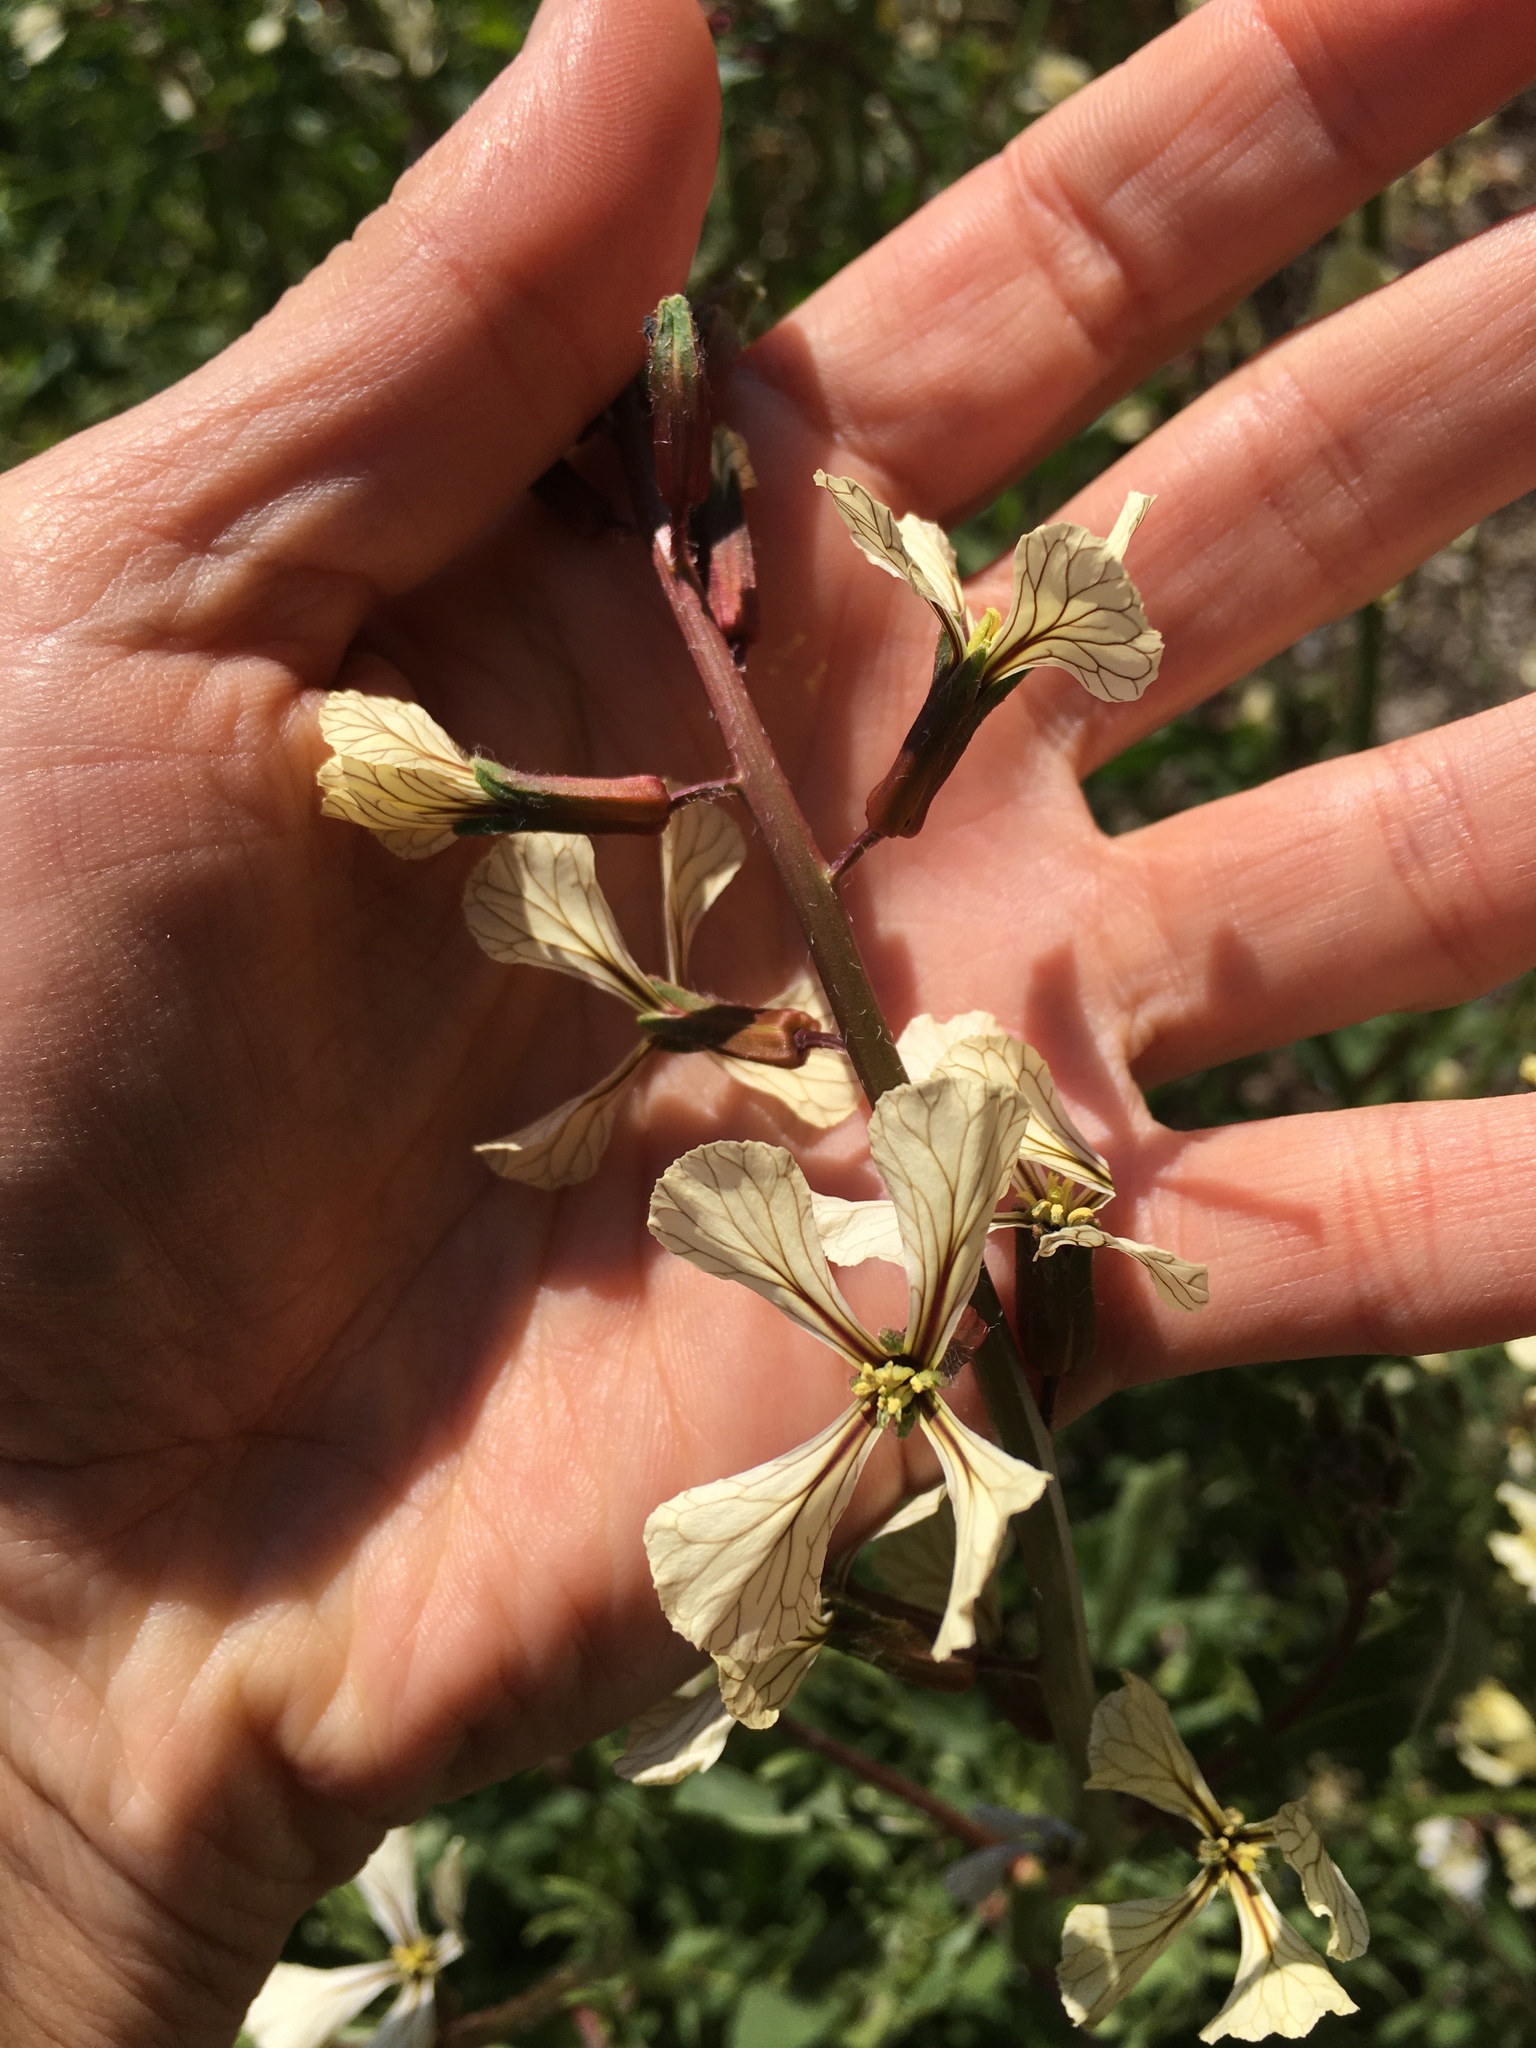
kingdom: Plantae
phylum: Tracheophyta
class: Magnoliopsida
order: Brassicales
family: Brassicaceae
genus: Eruca
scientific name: Eruca vesicaria
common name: Garden rocket
